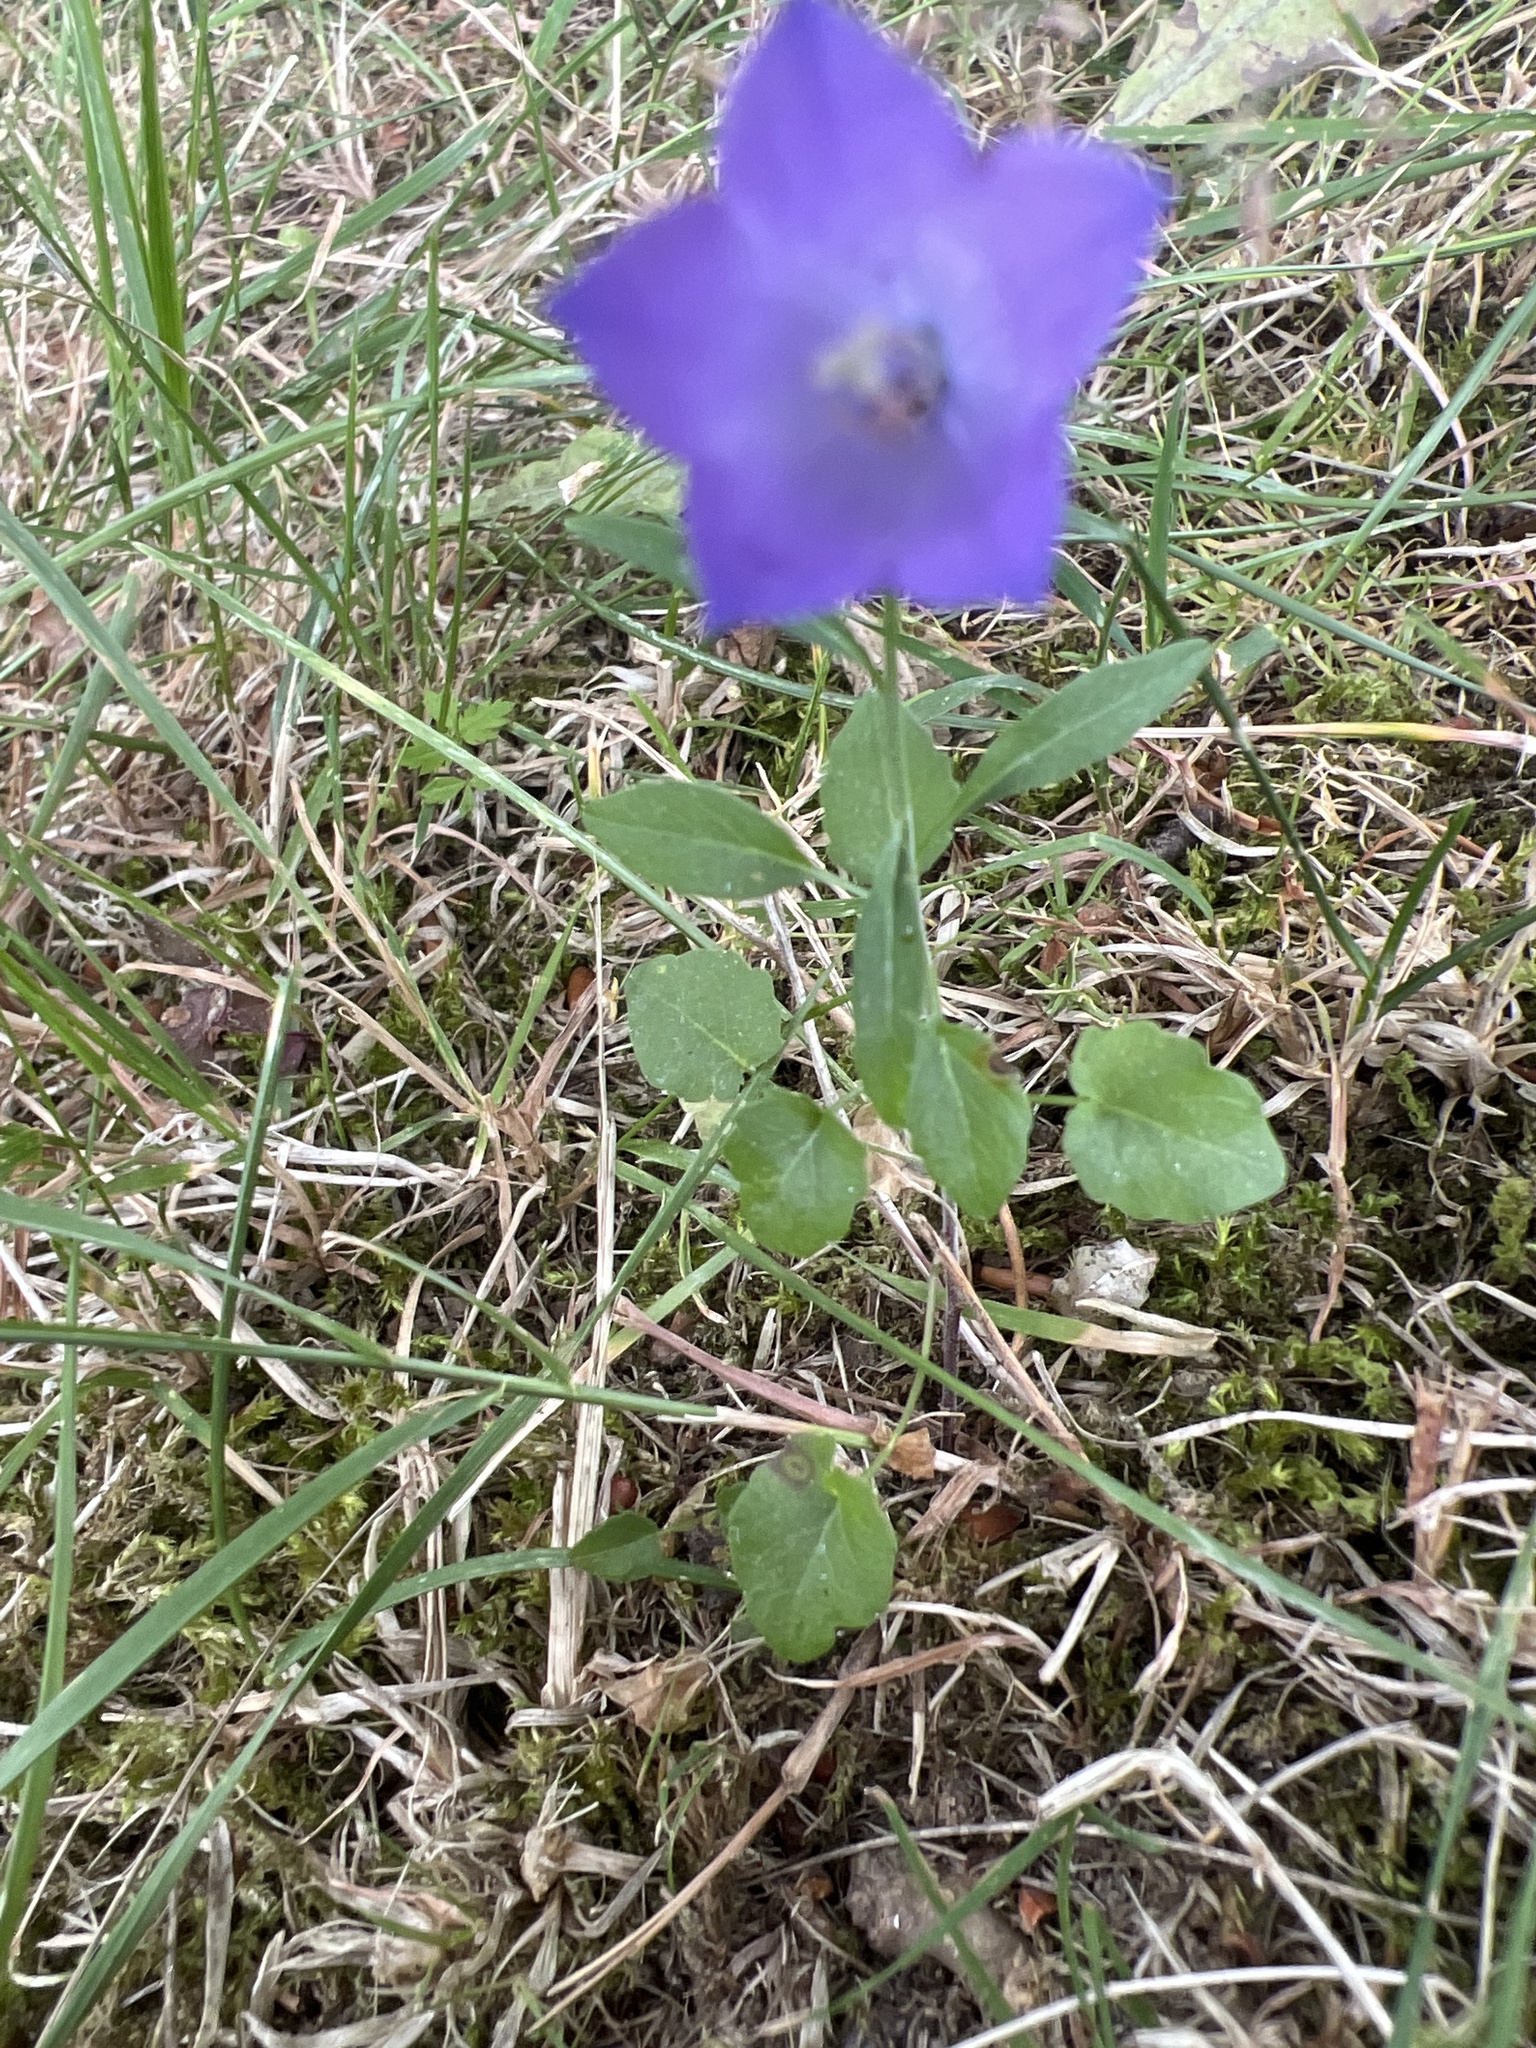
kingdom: Plantae
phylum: Tracheophyta
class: Magnoliopsida
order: Asterales
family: Campanulaceae
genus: Campanula
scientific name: Campanula rotundifolia
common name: Harebell
